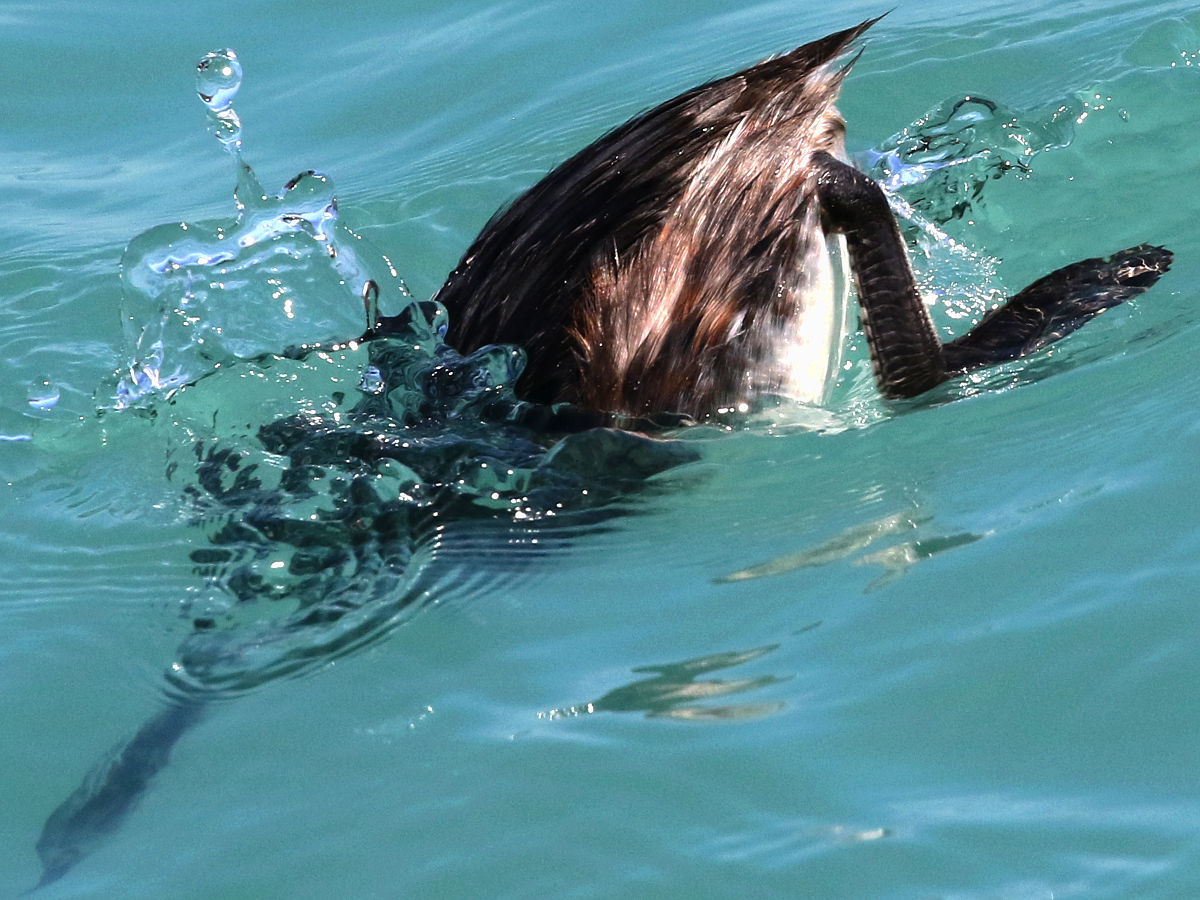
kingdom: Animalia
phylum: Chordata
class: Aves
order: Podicipediformes
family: Podicipedidae
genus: Podiceps
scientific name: Podiceps auritus
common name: Horned grebe
